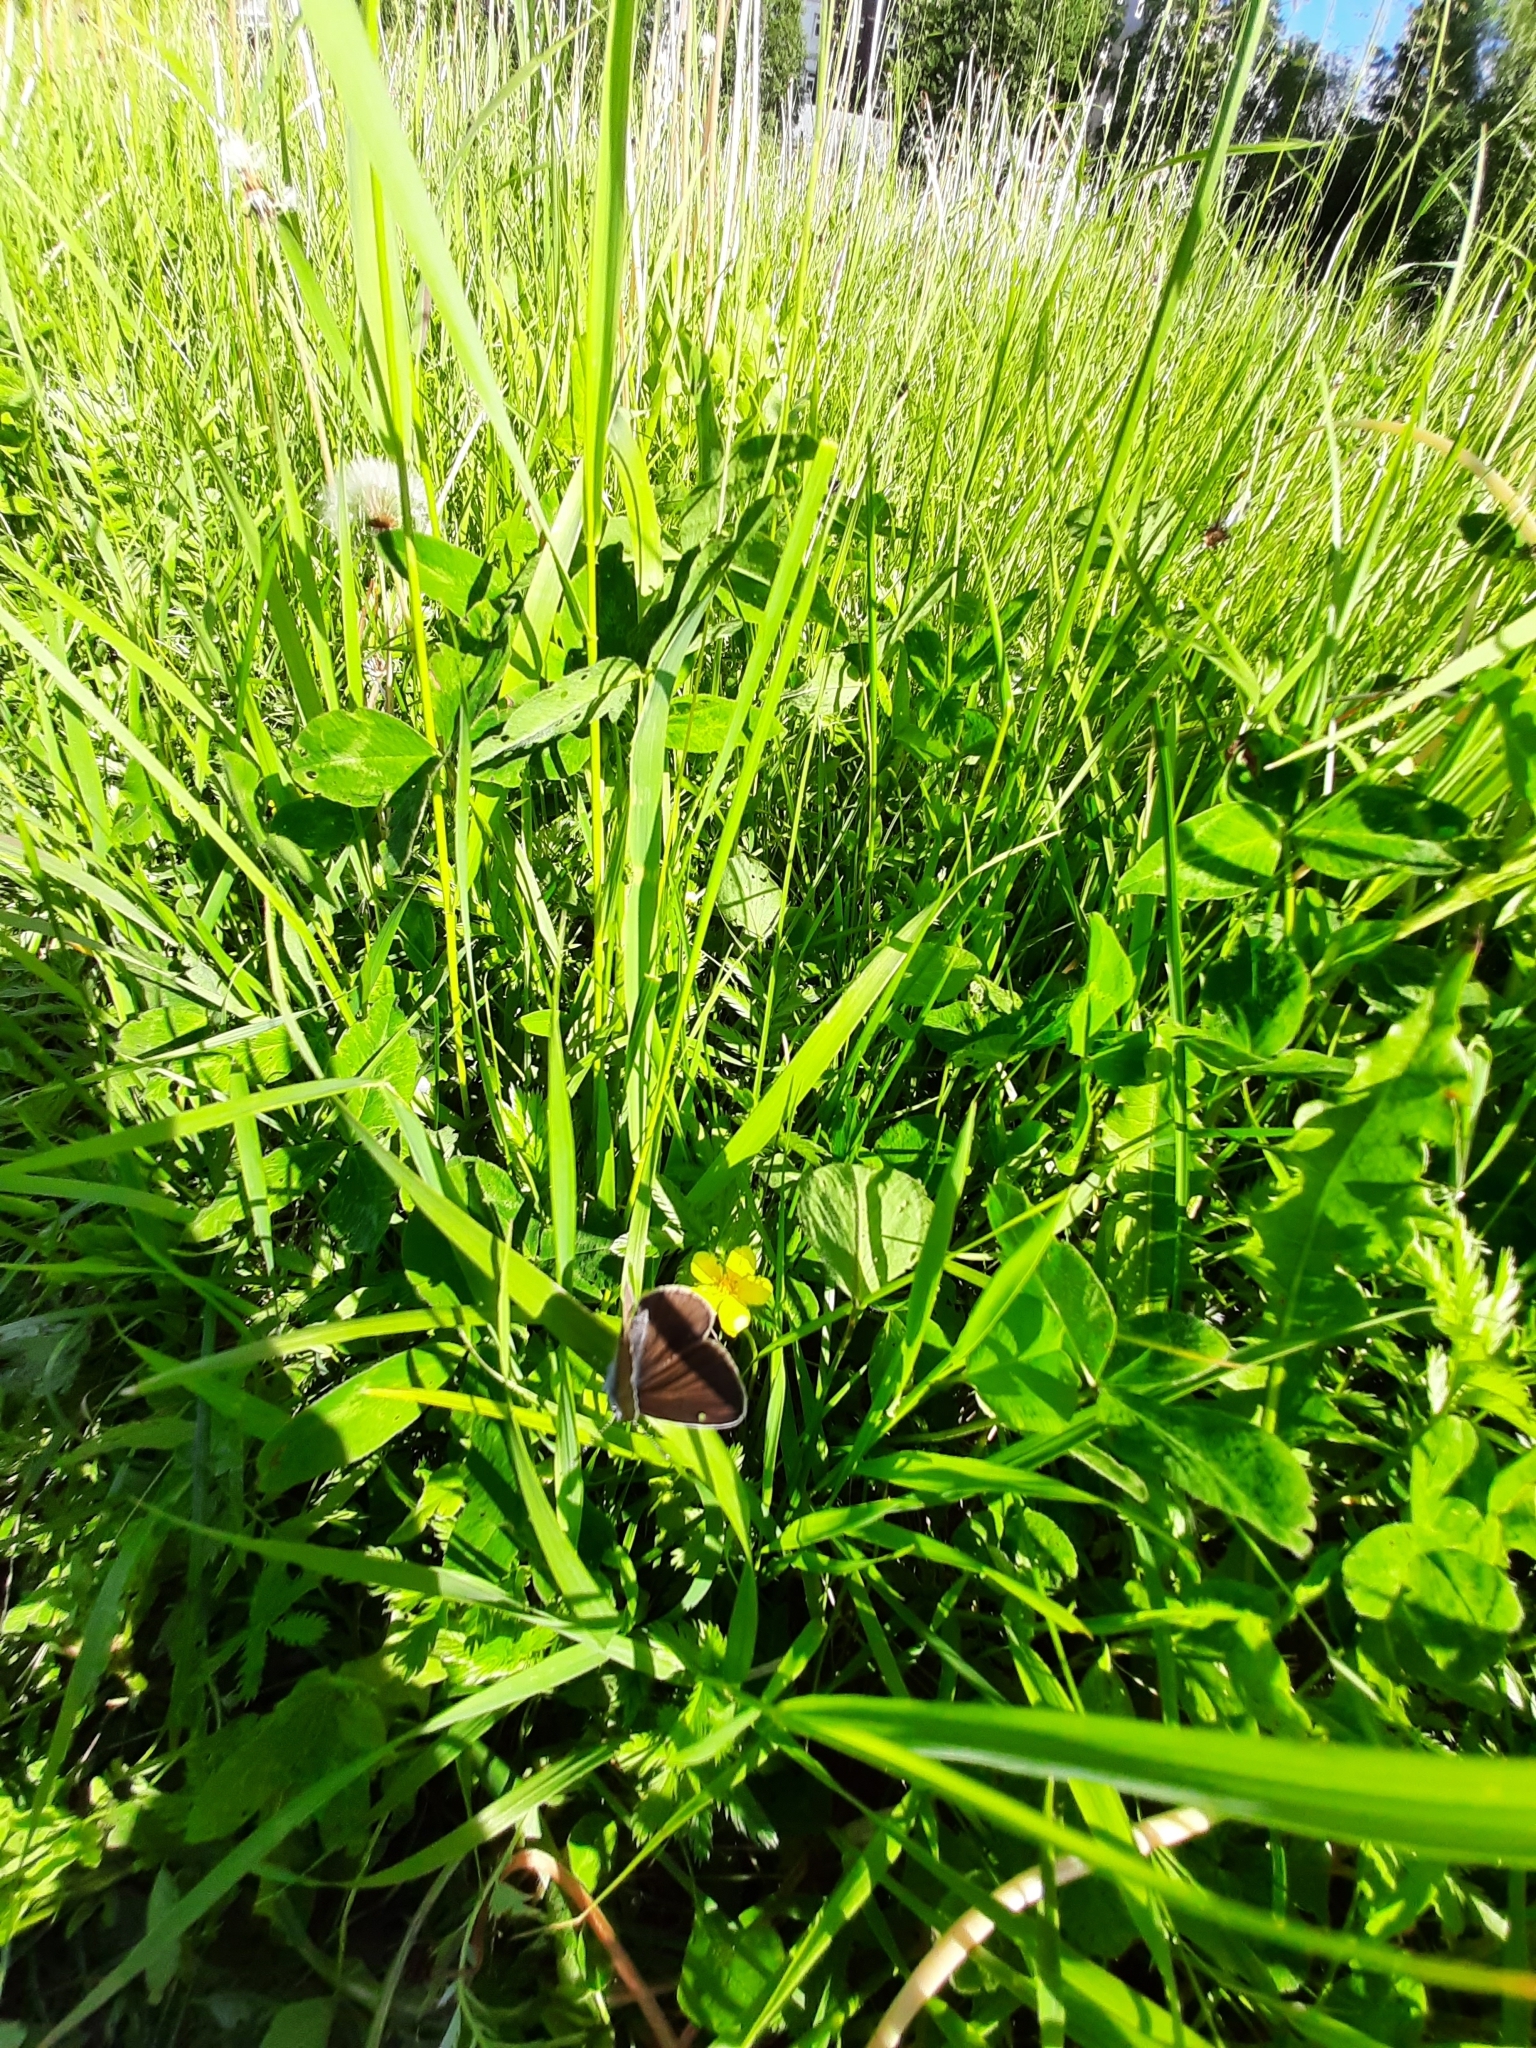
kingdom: Animalia
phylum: Arthropoda
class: Insecta
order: Lepidoptera
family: Lycaenidae
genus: Cyaniris
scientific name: Cyaniris semiargus
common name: Mazarine blue
